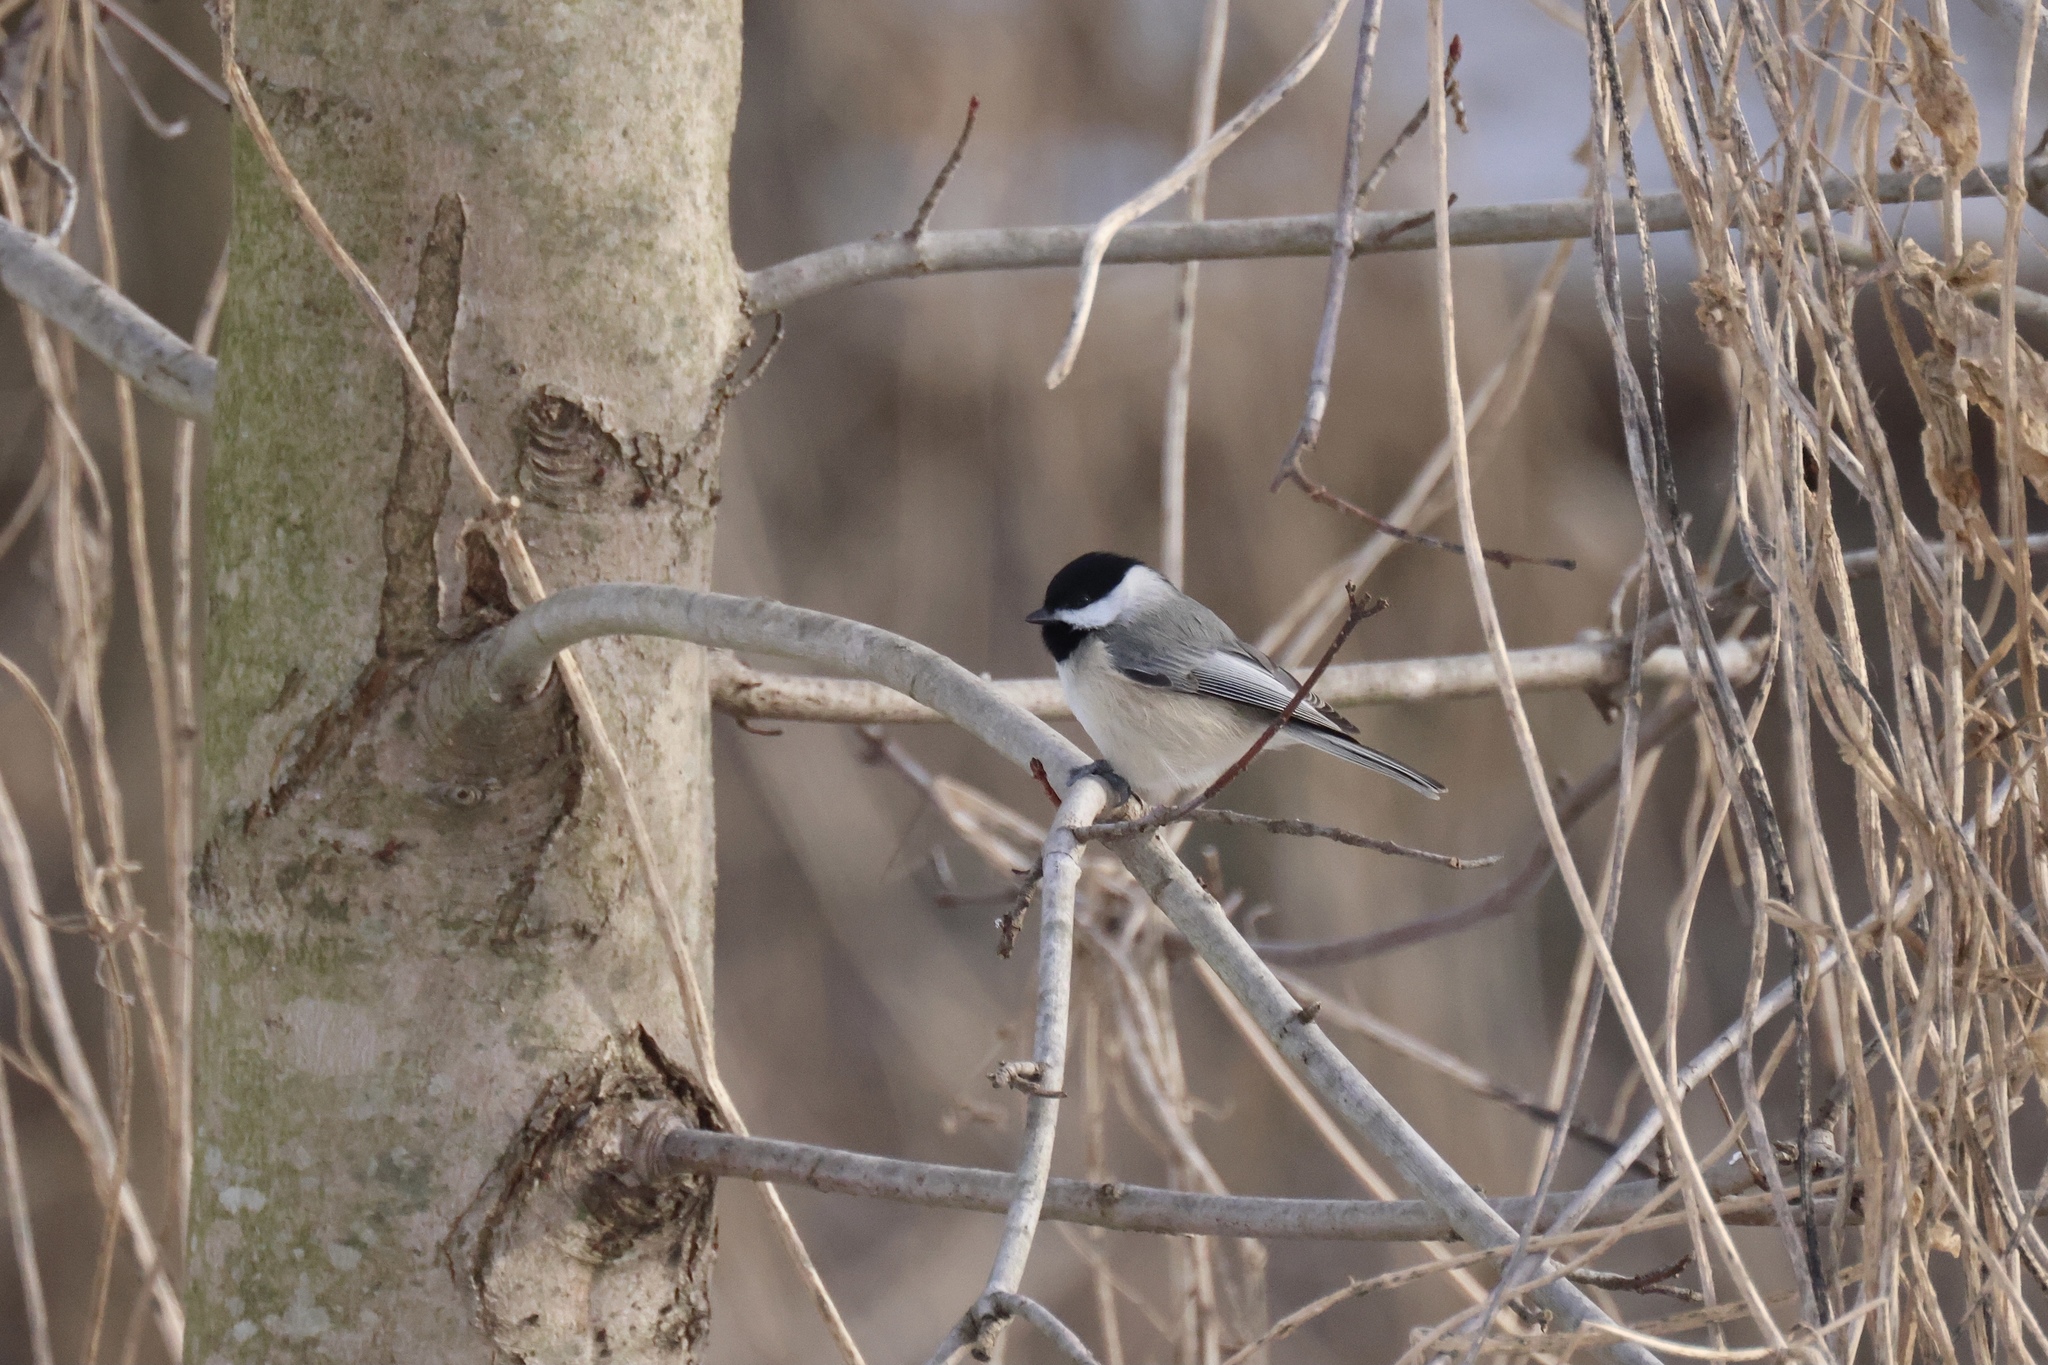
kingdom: Animalia
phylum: Chordata
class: Aves
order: Passeriformes
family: Paridae
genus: Poecile
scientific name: Poecile carolinensis
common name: Carolina chickadee
